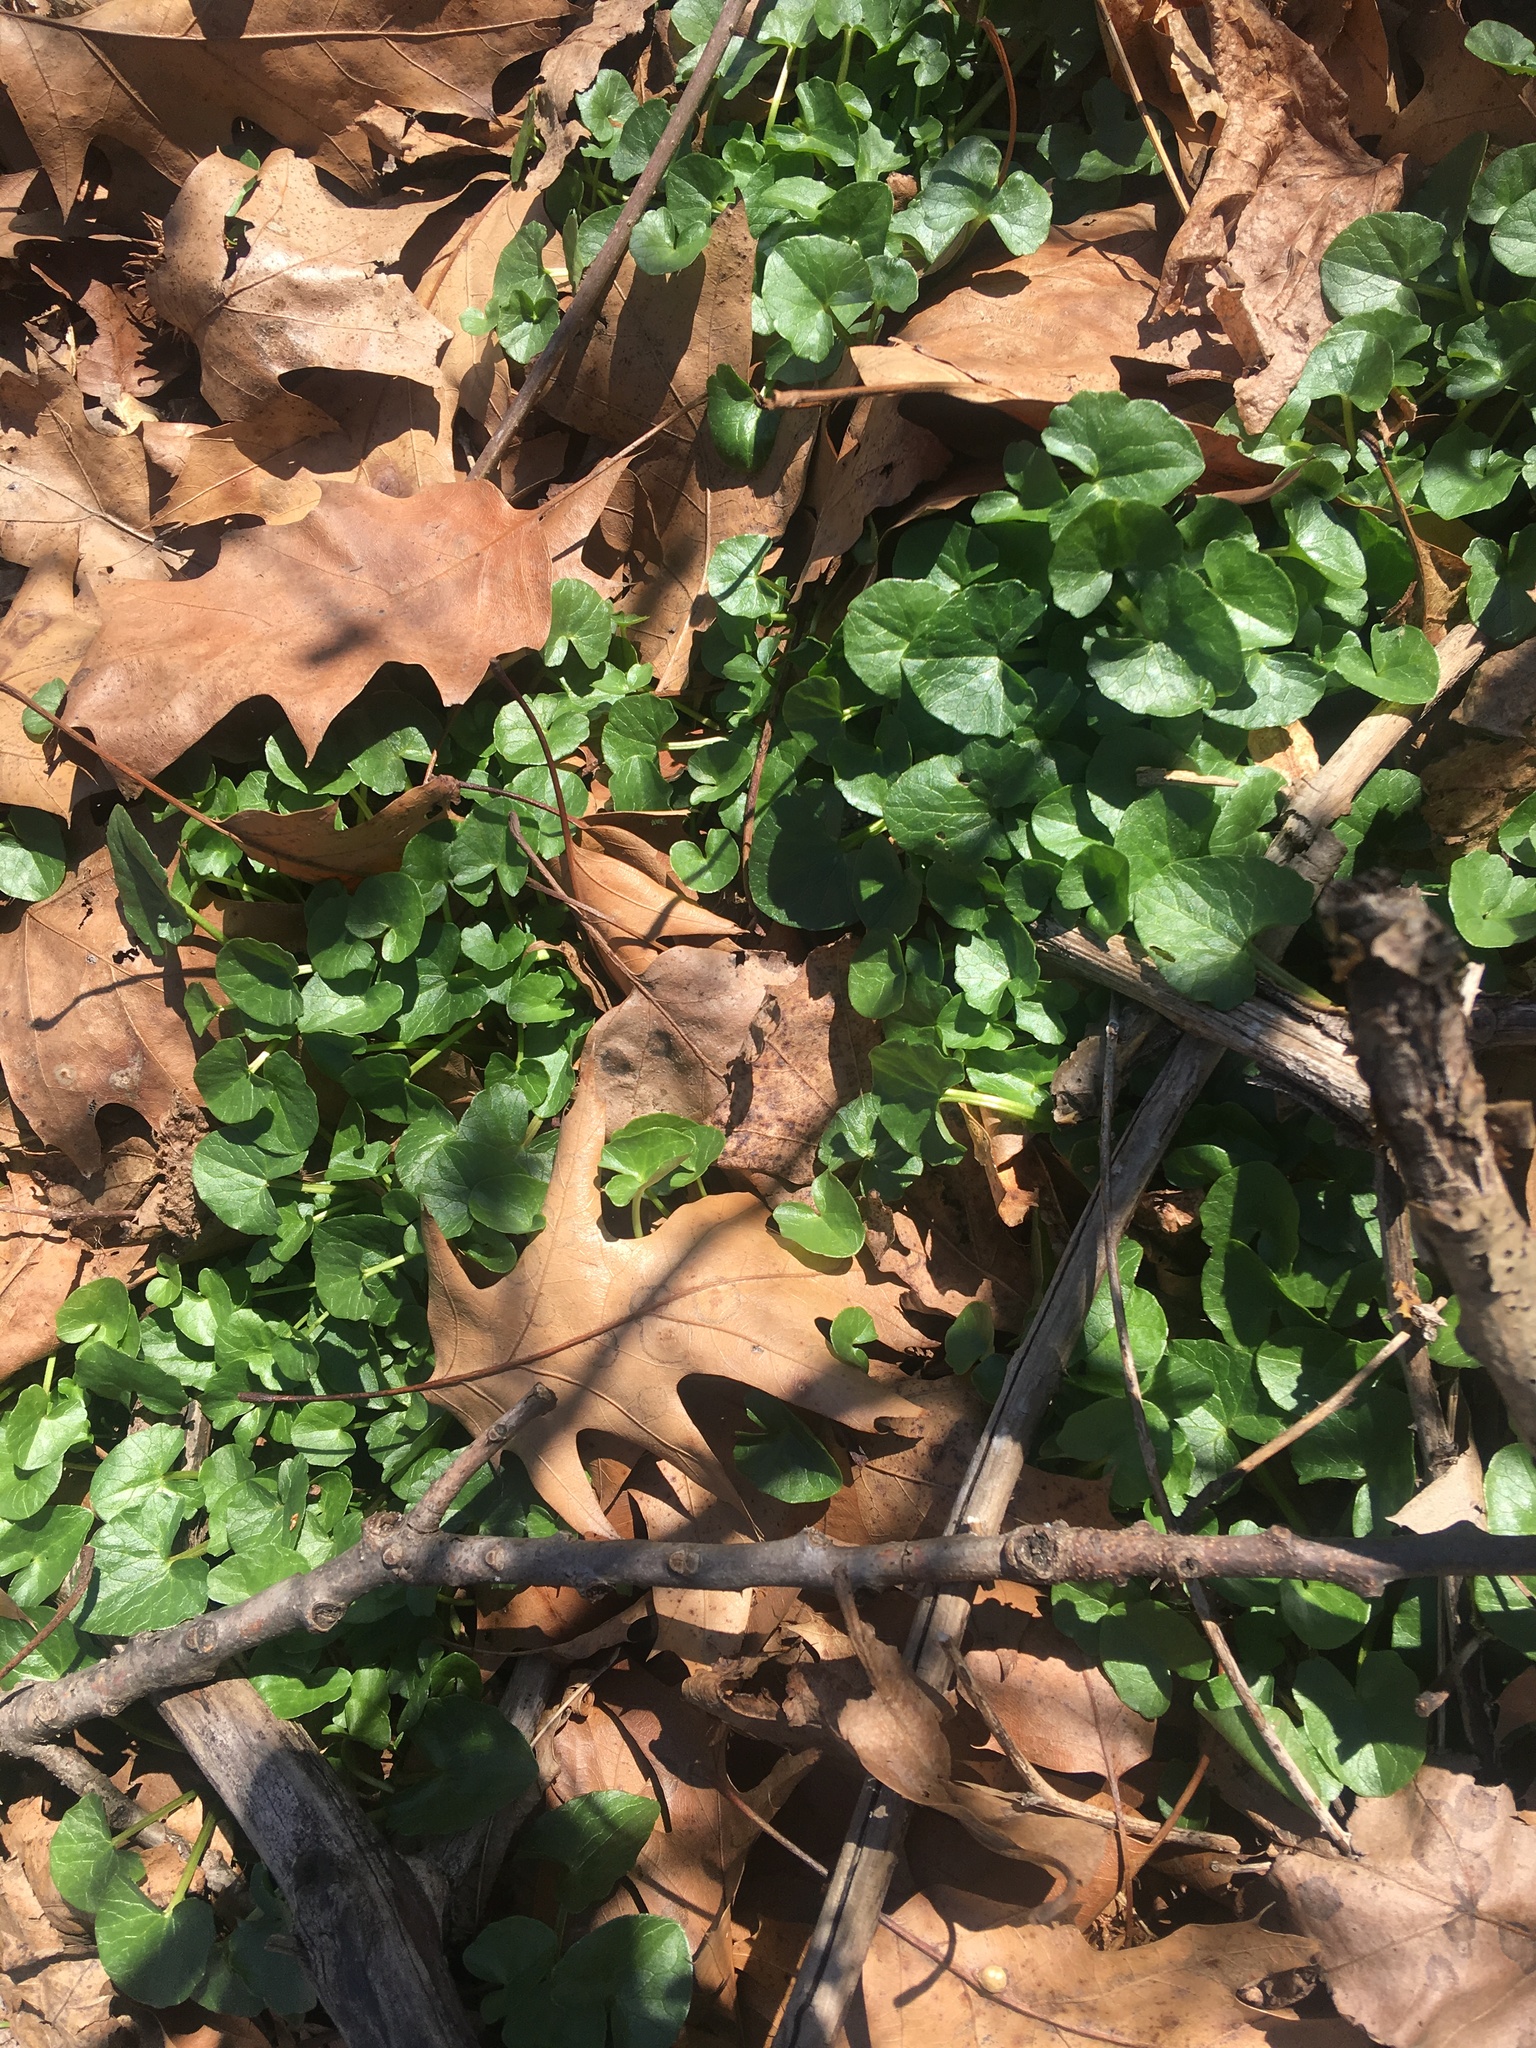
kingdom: Plantae
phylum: Tracheophyta
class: Magnoliopsida
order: Ranunculales
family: Ranunculaceae
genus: Ficaria
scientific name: Ficaria verna
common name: Lesser celandine
